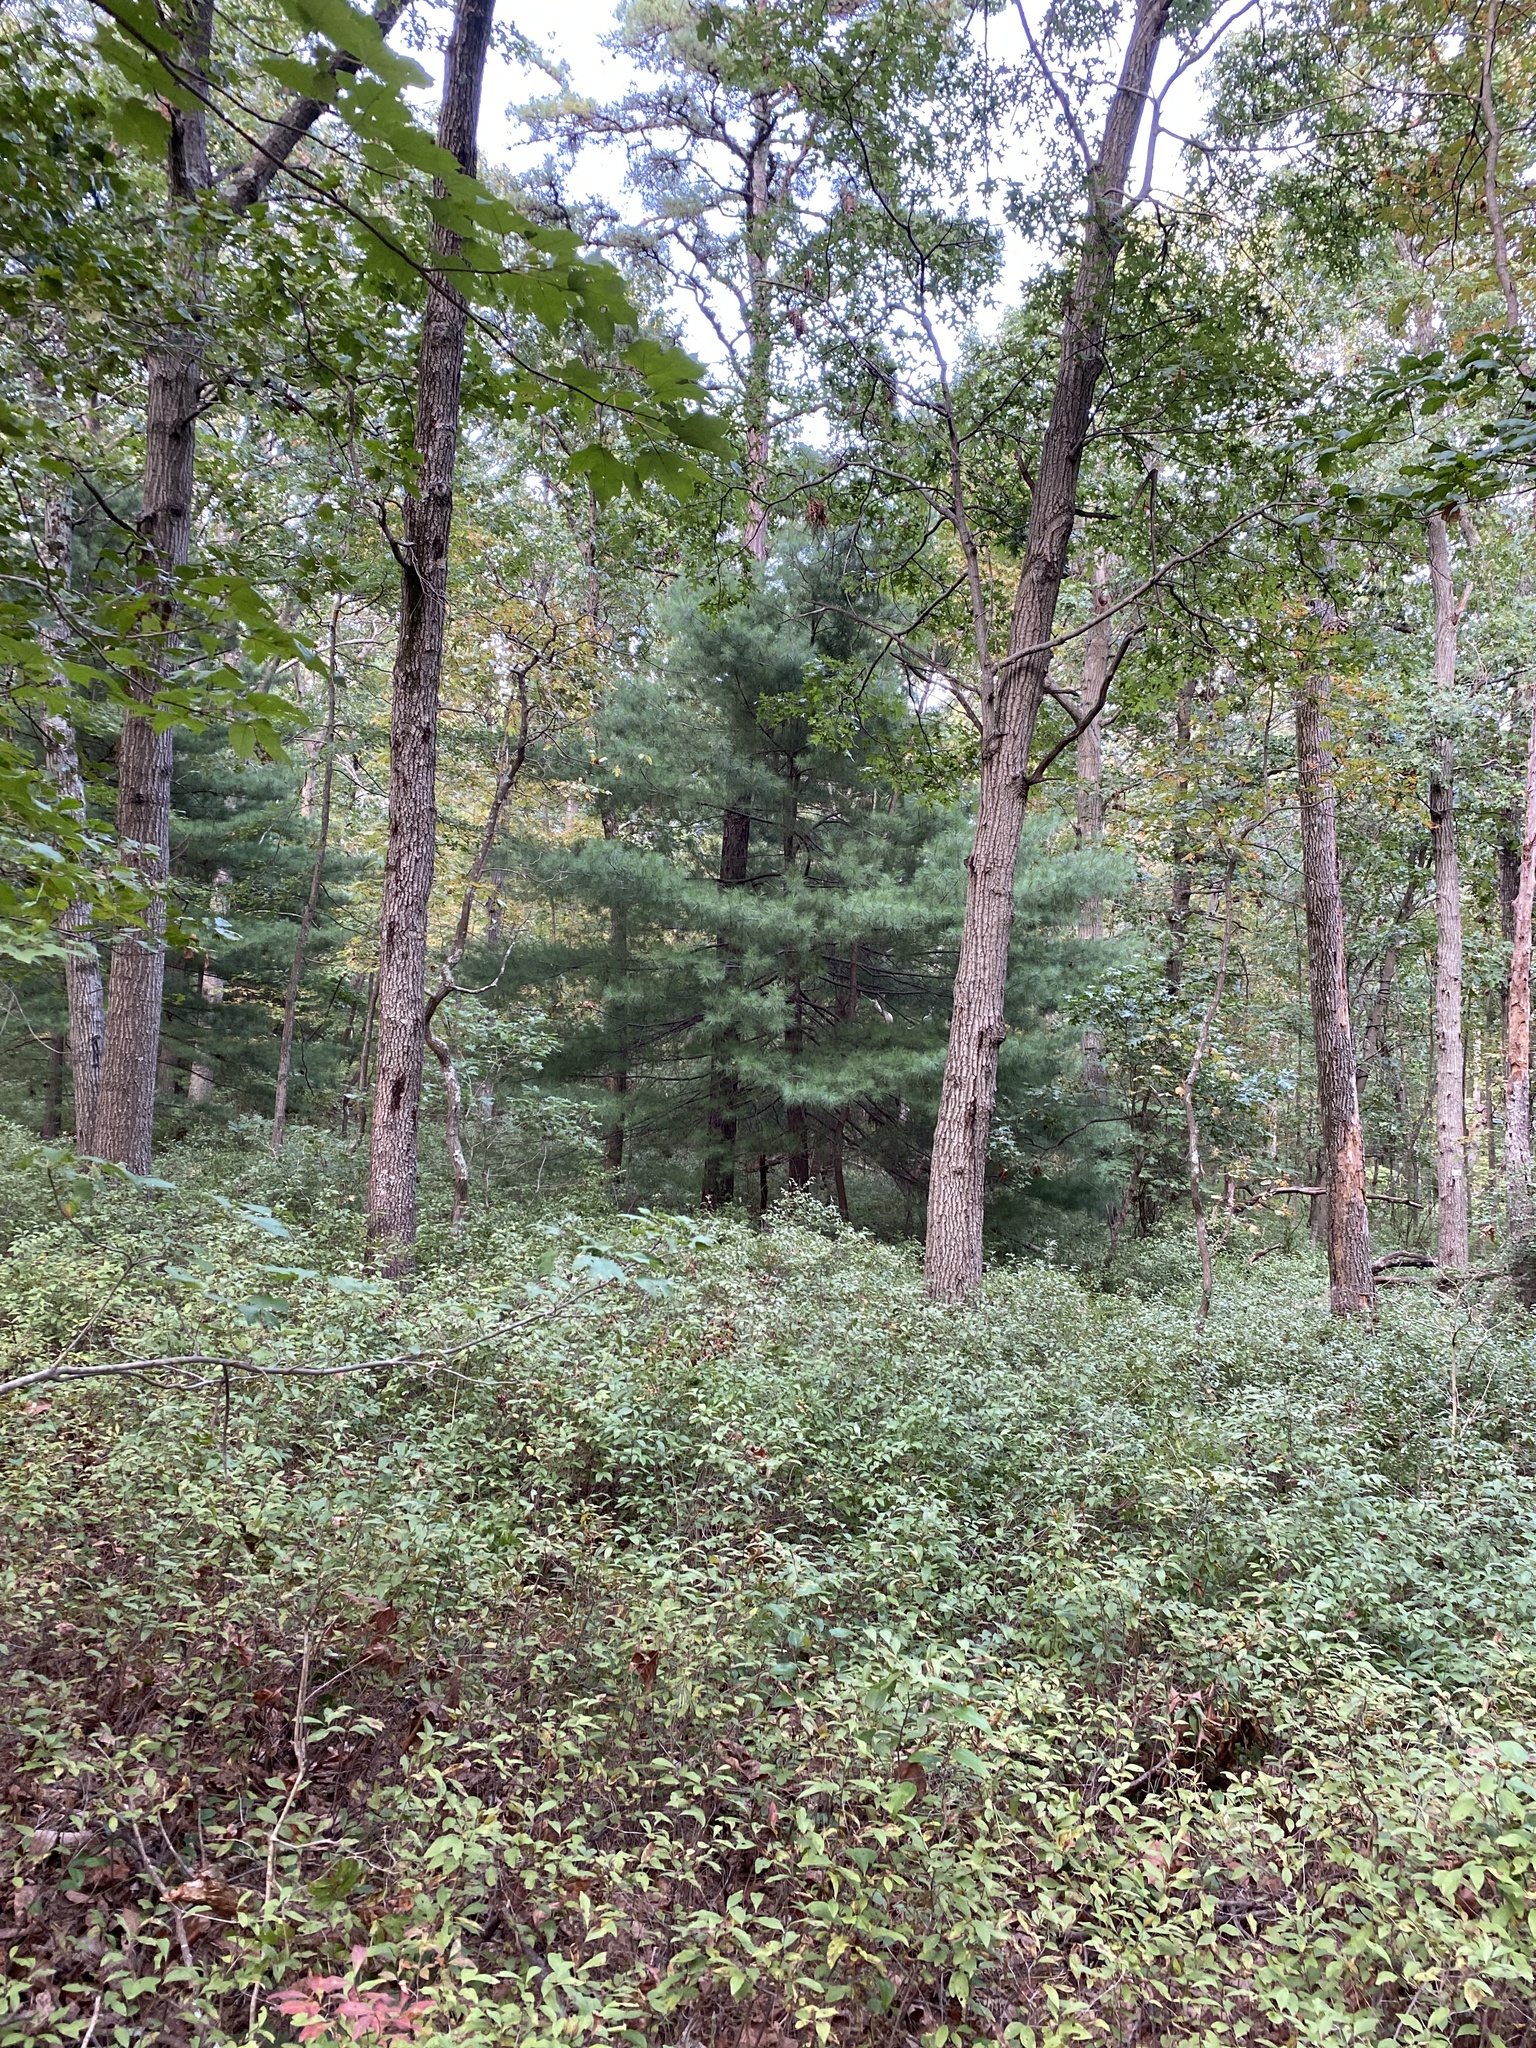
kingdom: Plantae
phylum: Tracheophyta
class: Pinopsida
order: Pinales
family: Pinaceae
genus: Pinus
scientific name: Pinus strobus
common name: Weymouth pine
